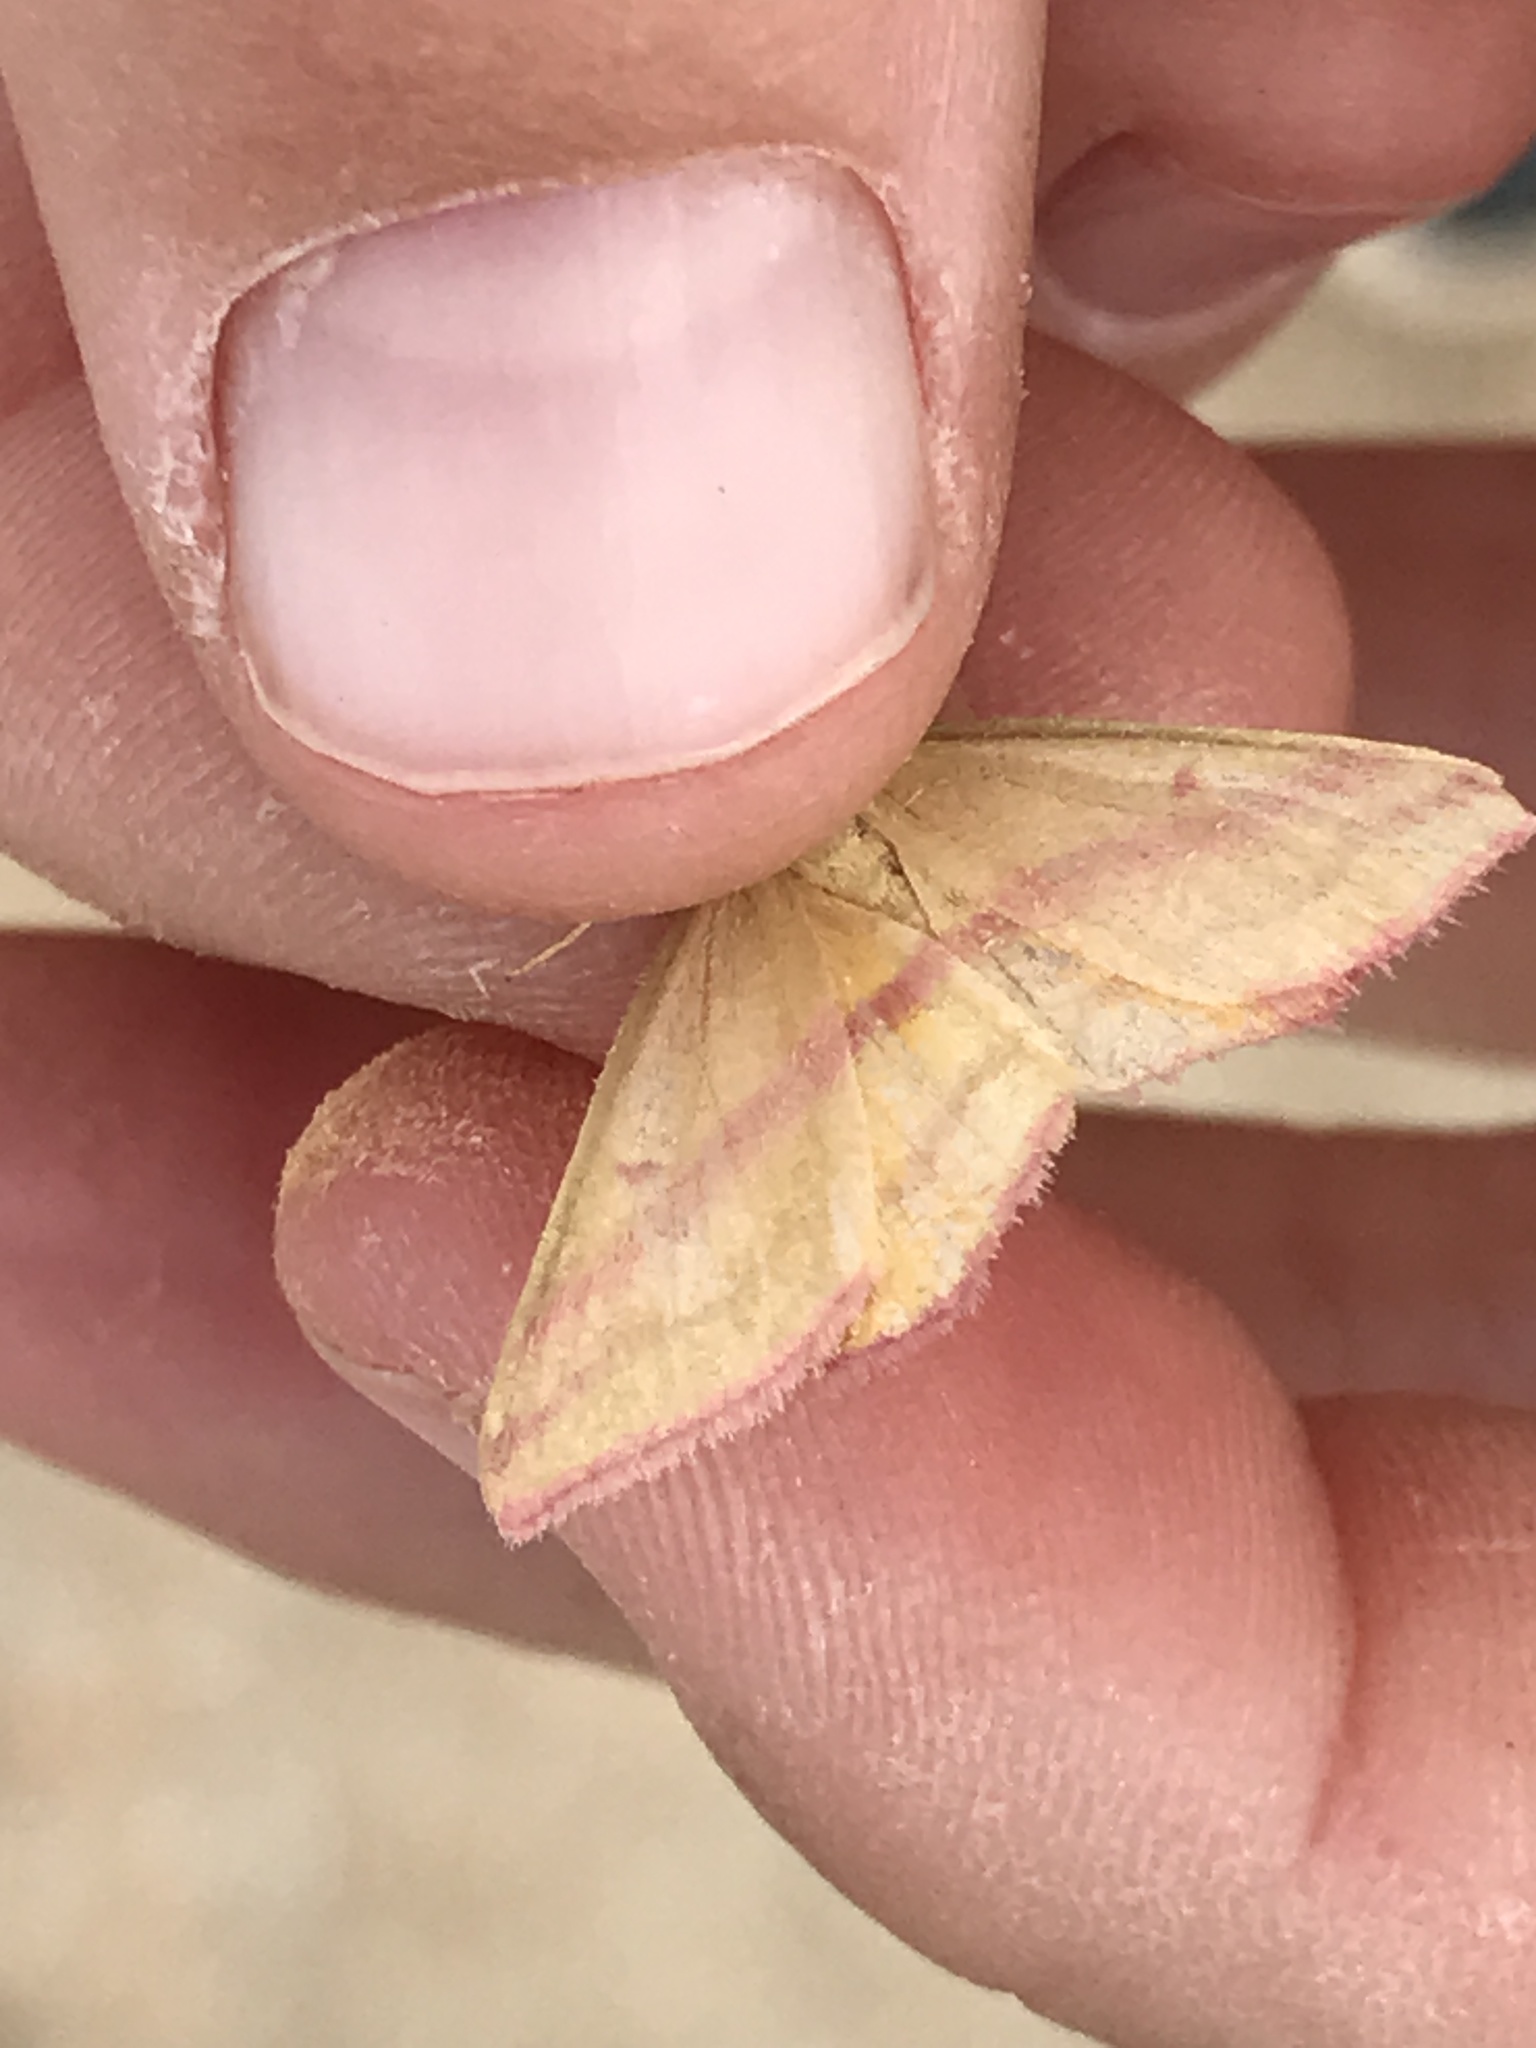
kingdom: Animalia
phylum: Arthropoda
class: Insecta
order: Lepidoptera
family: Geometridae
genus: Haematopis
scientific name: Haematopis grataria
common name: Chickweed geometer
